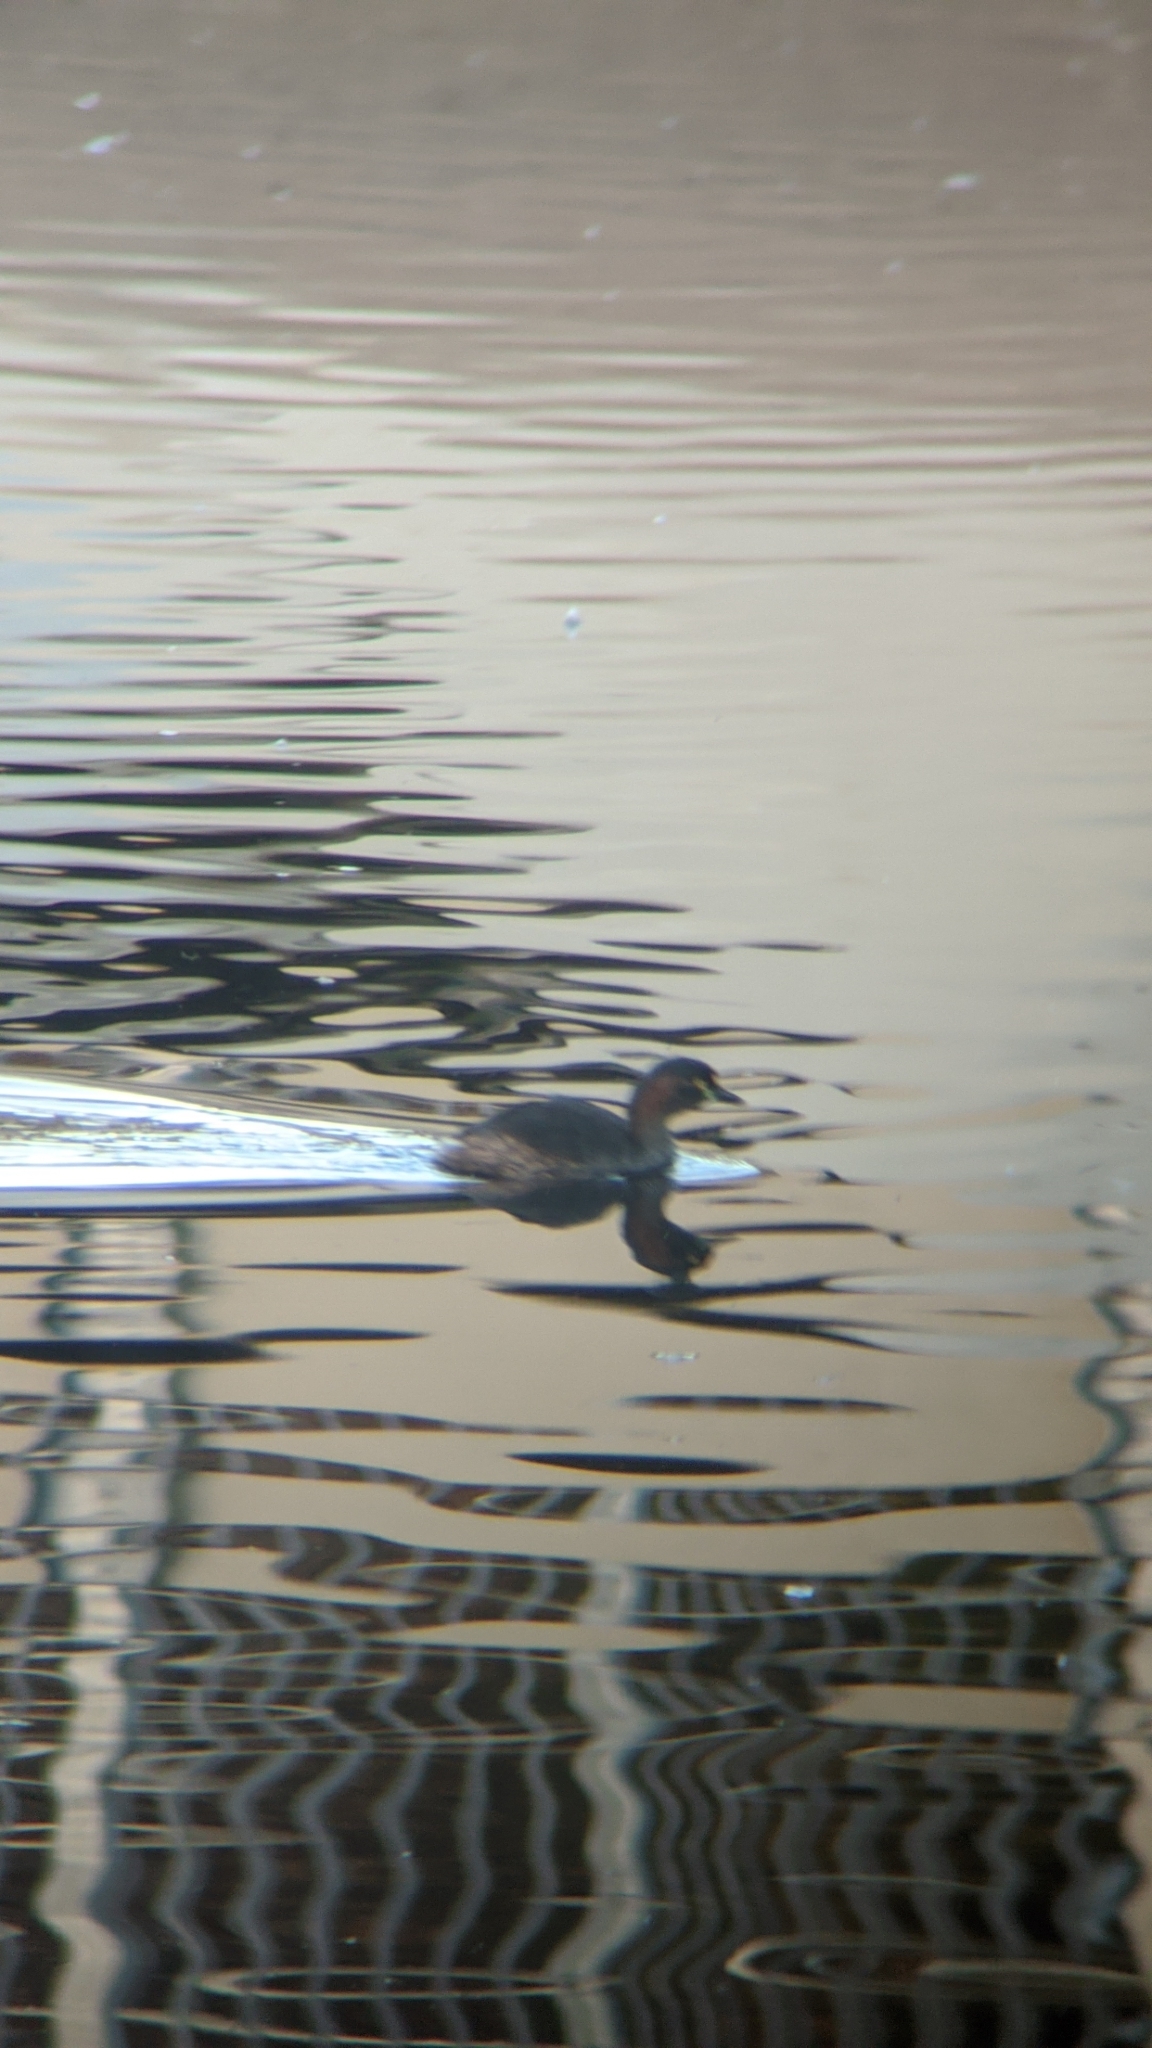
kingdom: Animalia
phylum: Chordata
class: Aves
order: Podicipediformes
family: Podicipedidae
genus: Tachybaptus
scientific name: Tachybaptus novaehollandiae
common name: Australasian grebe
